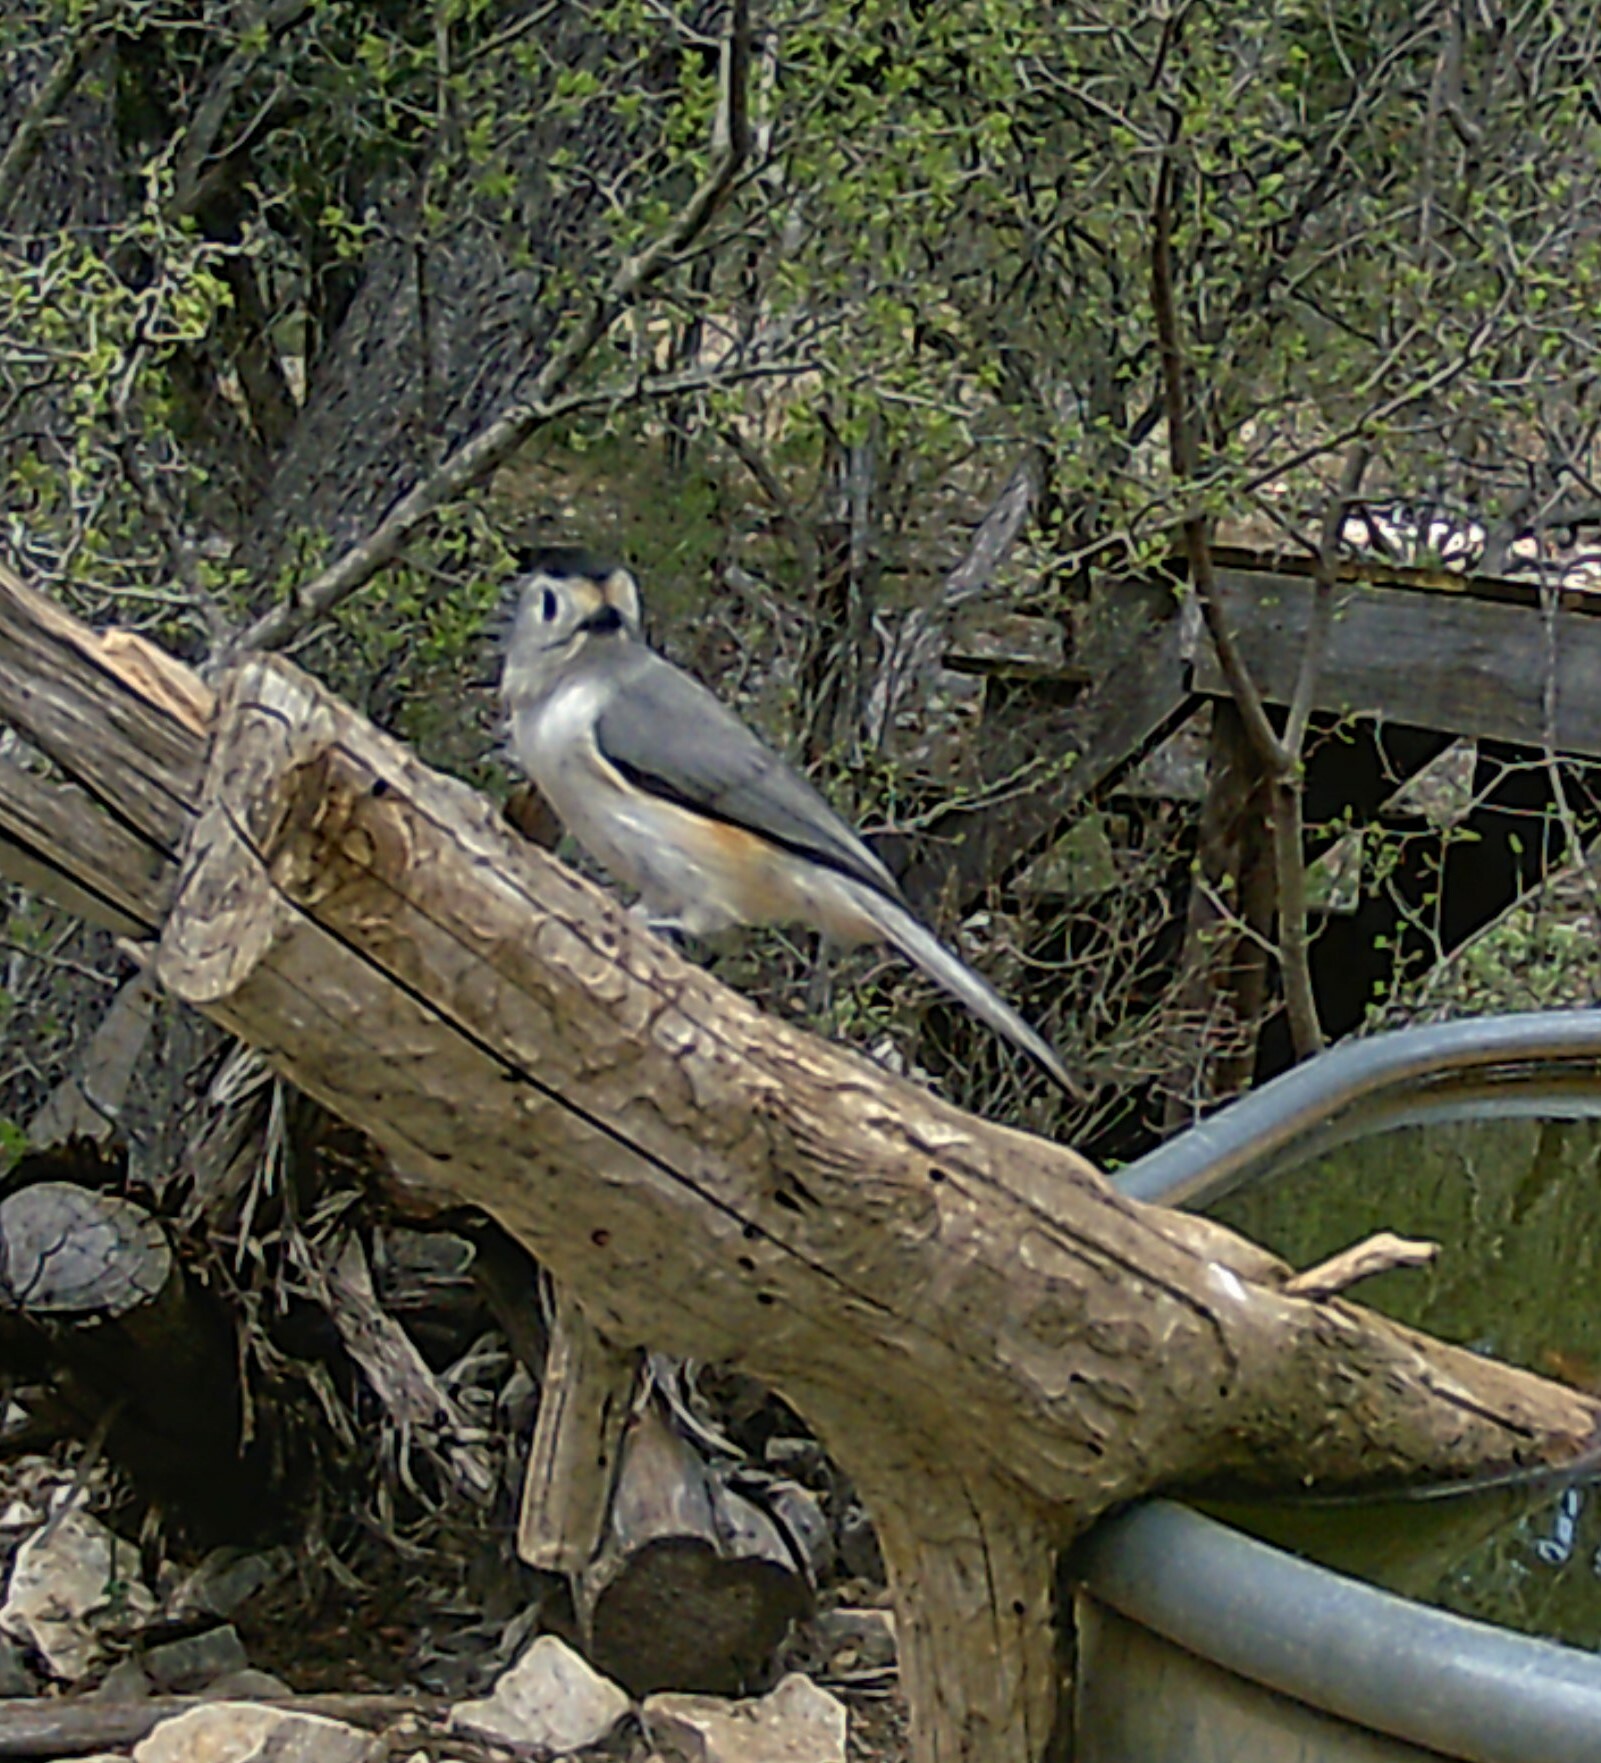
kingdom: Animalia
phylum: Chordata
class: Aves
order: Passeriformes
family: Paridae
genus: Baeolophus
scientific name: Baeolophus atricristatus
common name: Black-crested titmouse
